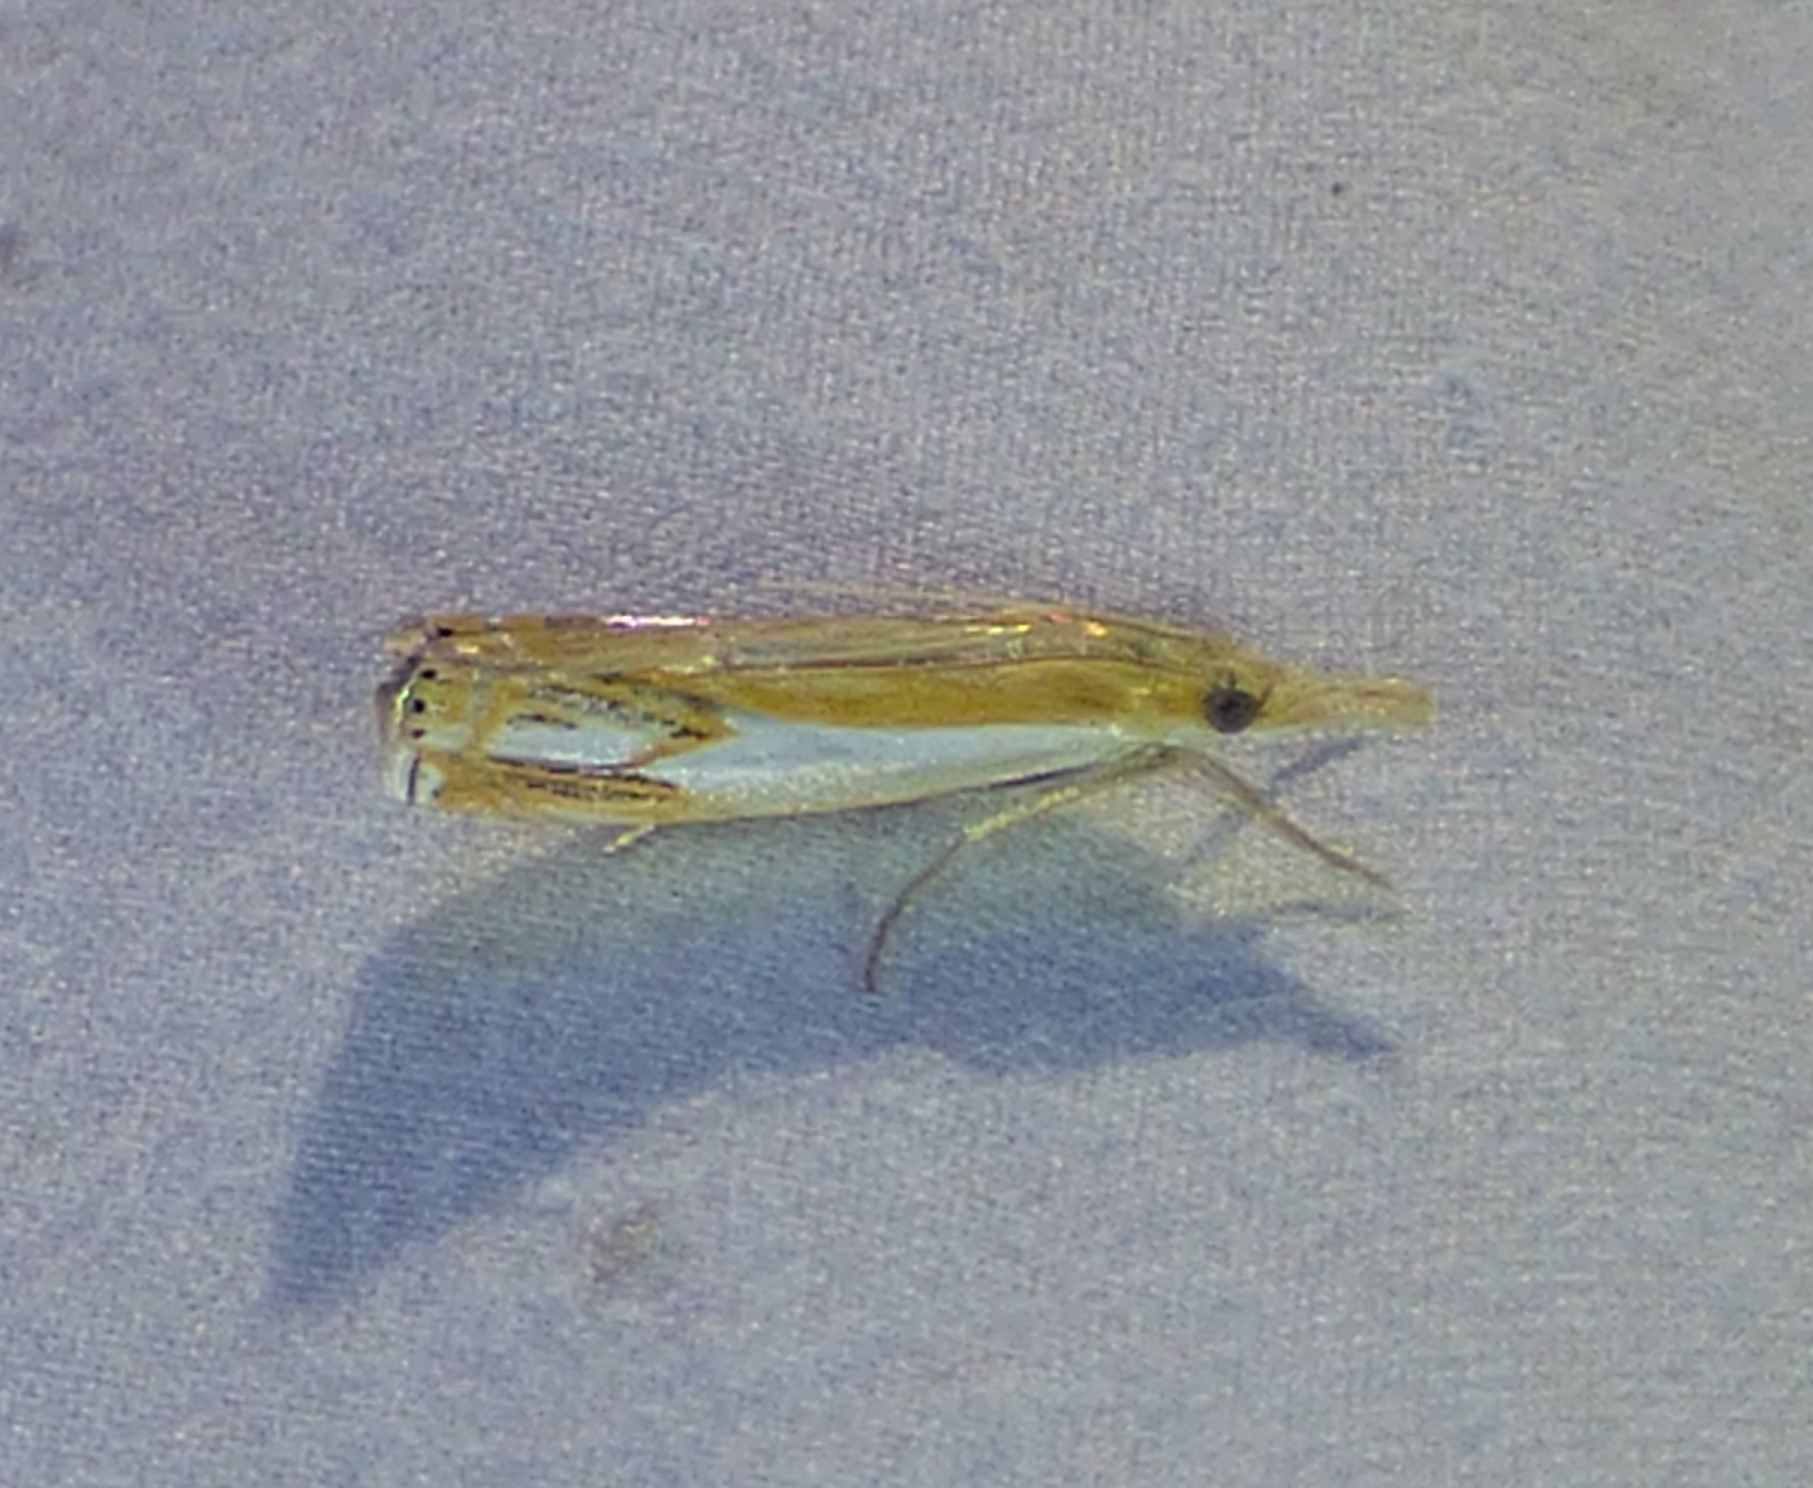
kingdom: Animalia
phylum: Arthropoda
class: Insecta
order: Lepidoptera
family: Crambidae
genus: Crambus
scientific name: Crambus agitatellus
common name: Double-banded grass-veneer
